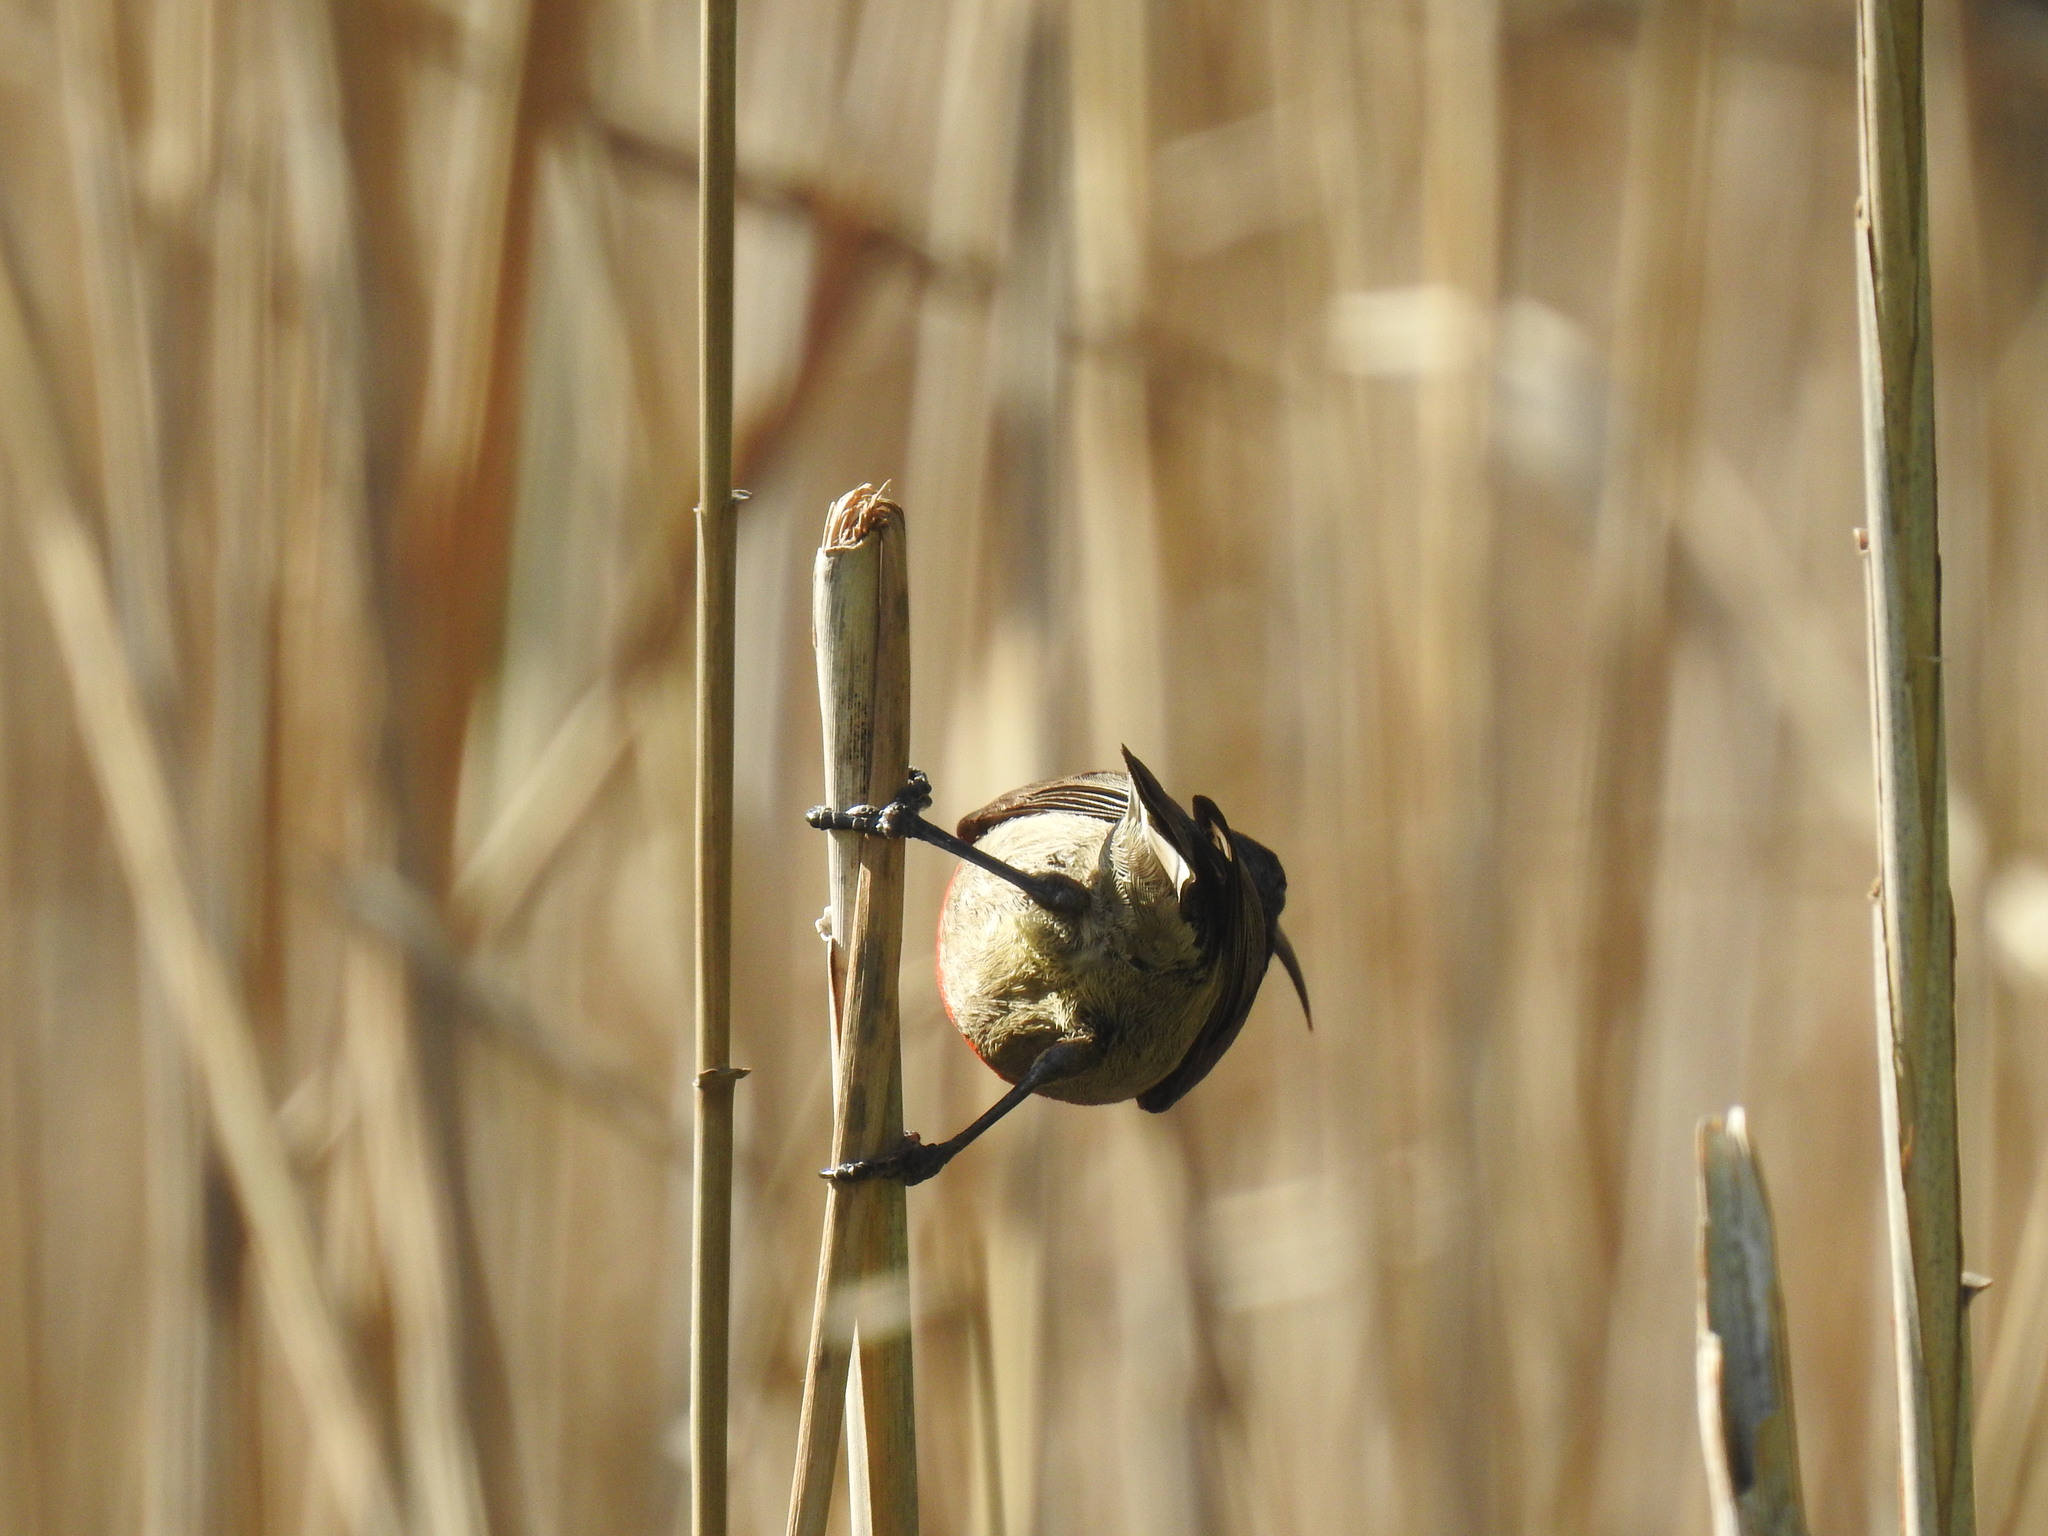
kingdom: Animalia
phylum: Chordata
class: Aves
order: Passeriformes
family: Nectariniidae
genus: Cinnyris
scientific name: Cinnyris afer
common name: Greater double-collared sunbird
